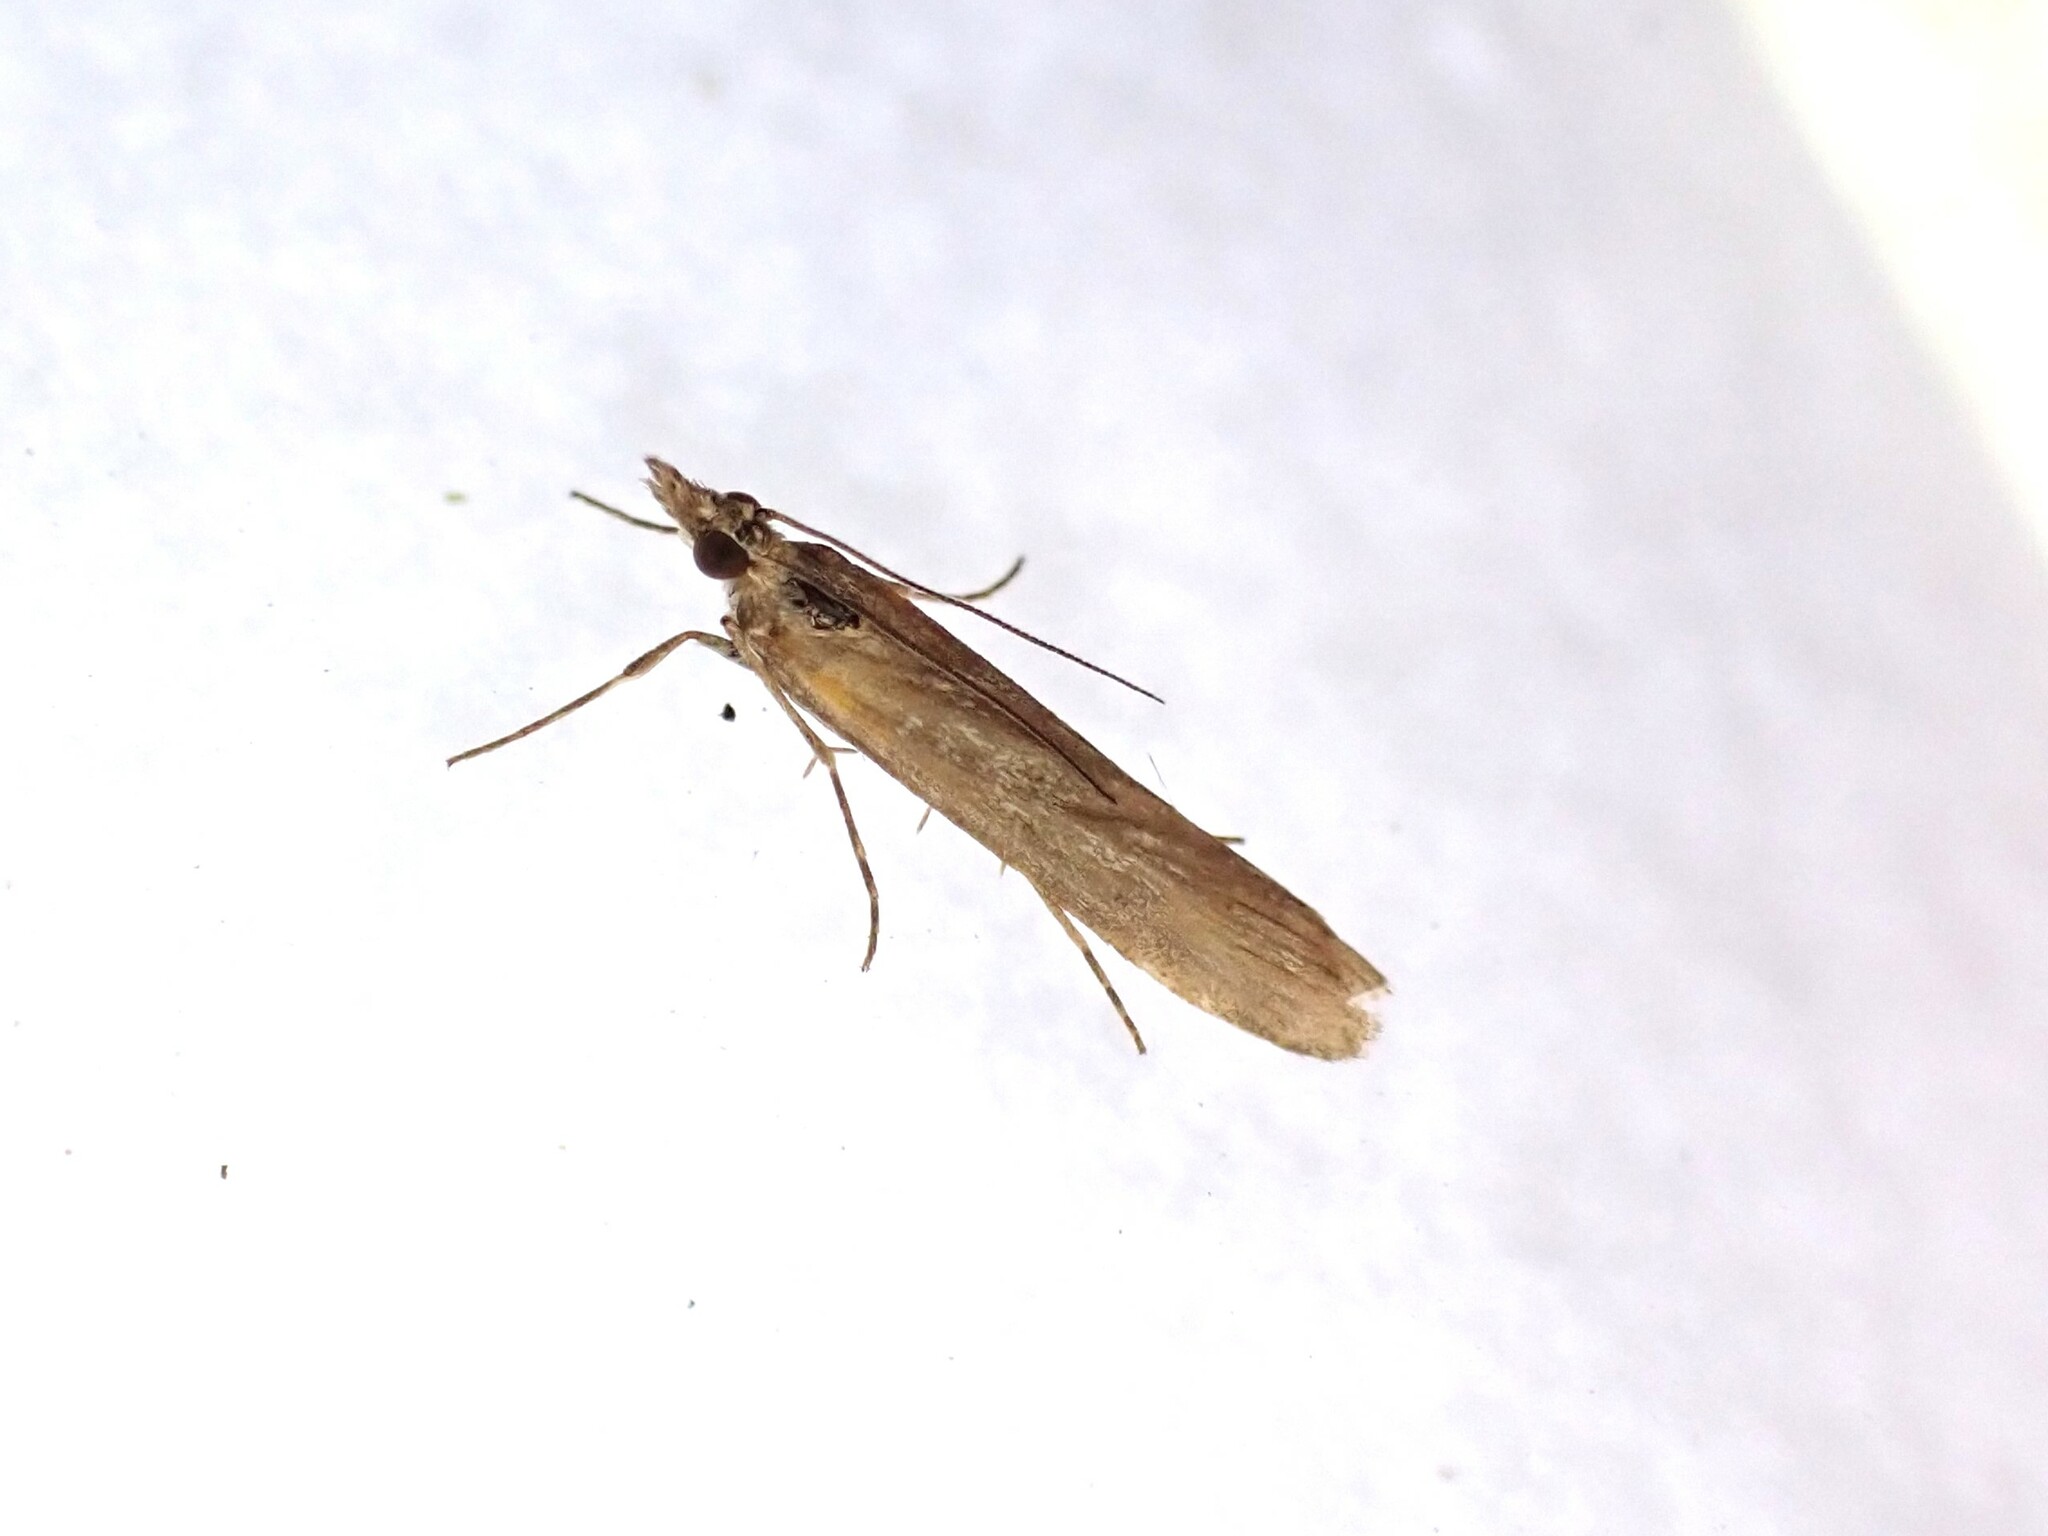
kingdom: Animalia
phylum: Arthropoda
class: Insecta
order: Lepidoptera
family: Crambidae
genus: Eudonia
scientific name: Eudonia leptalea
